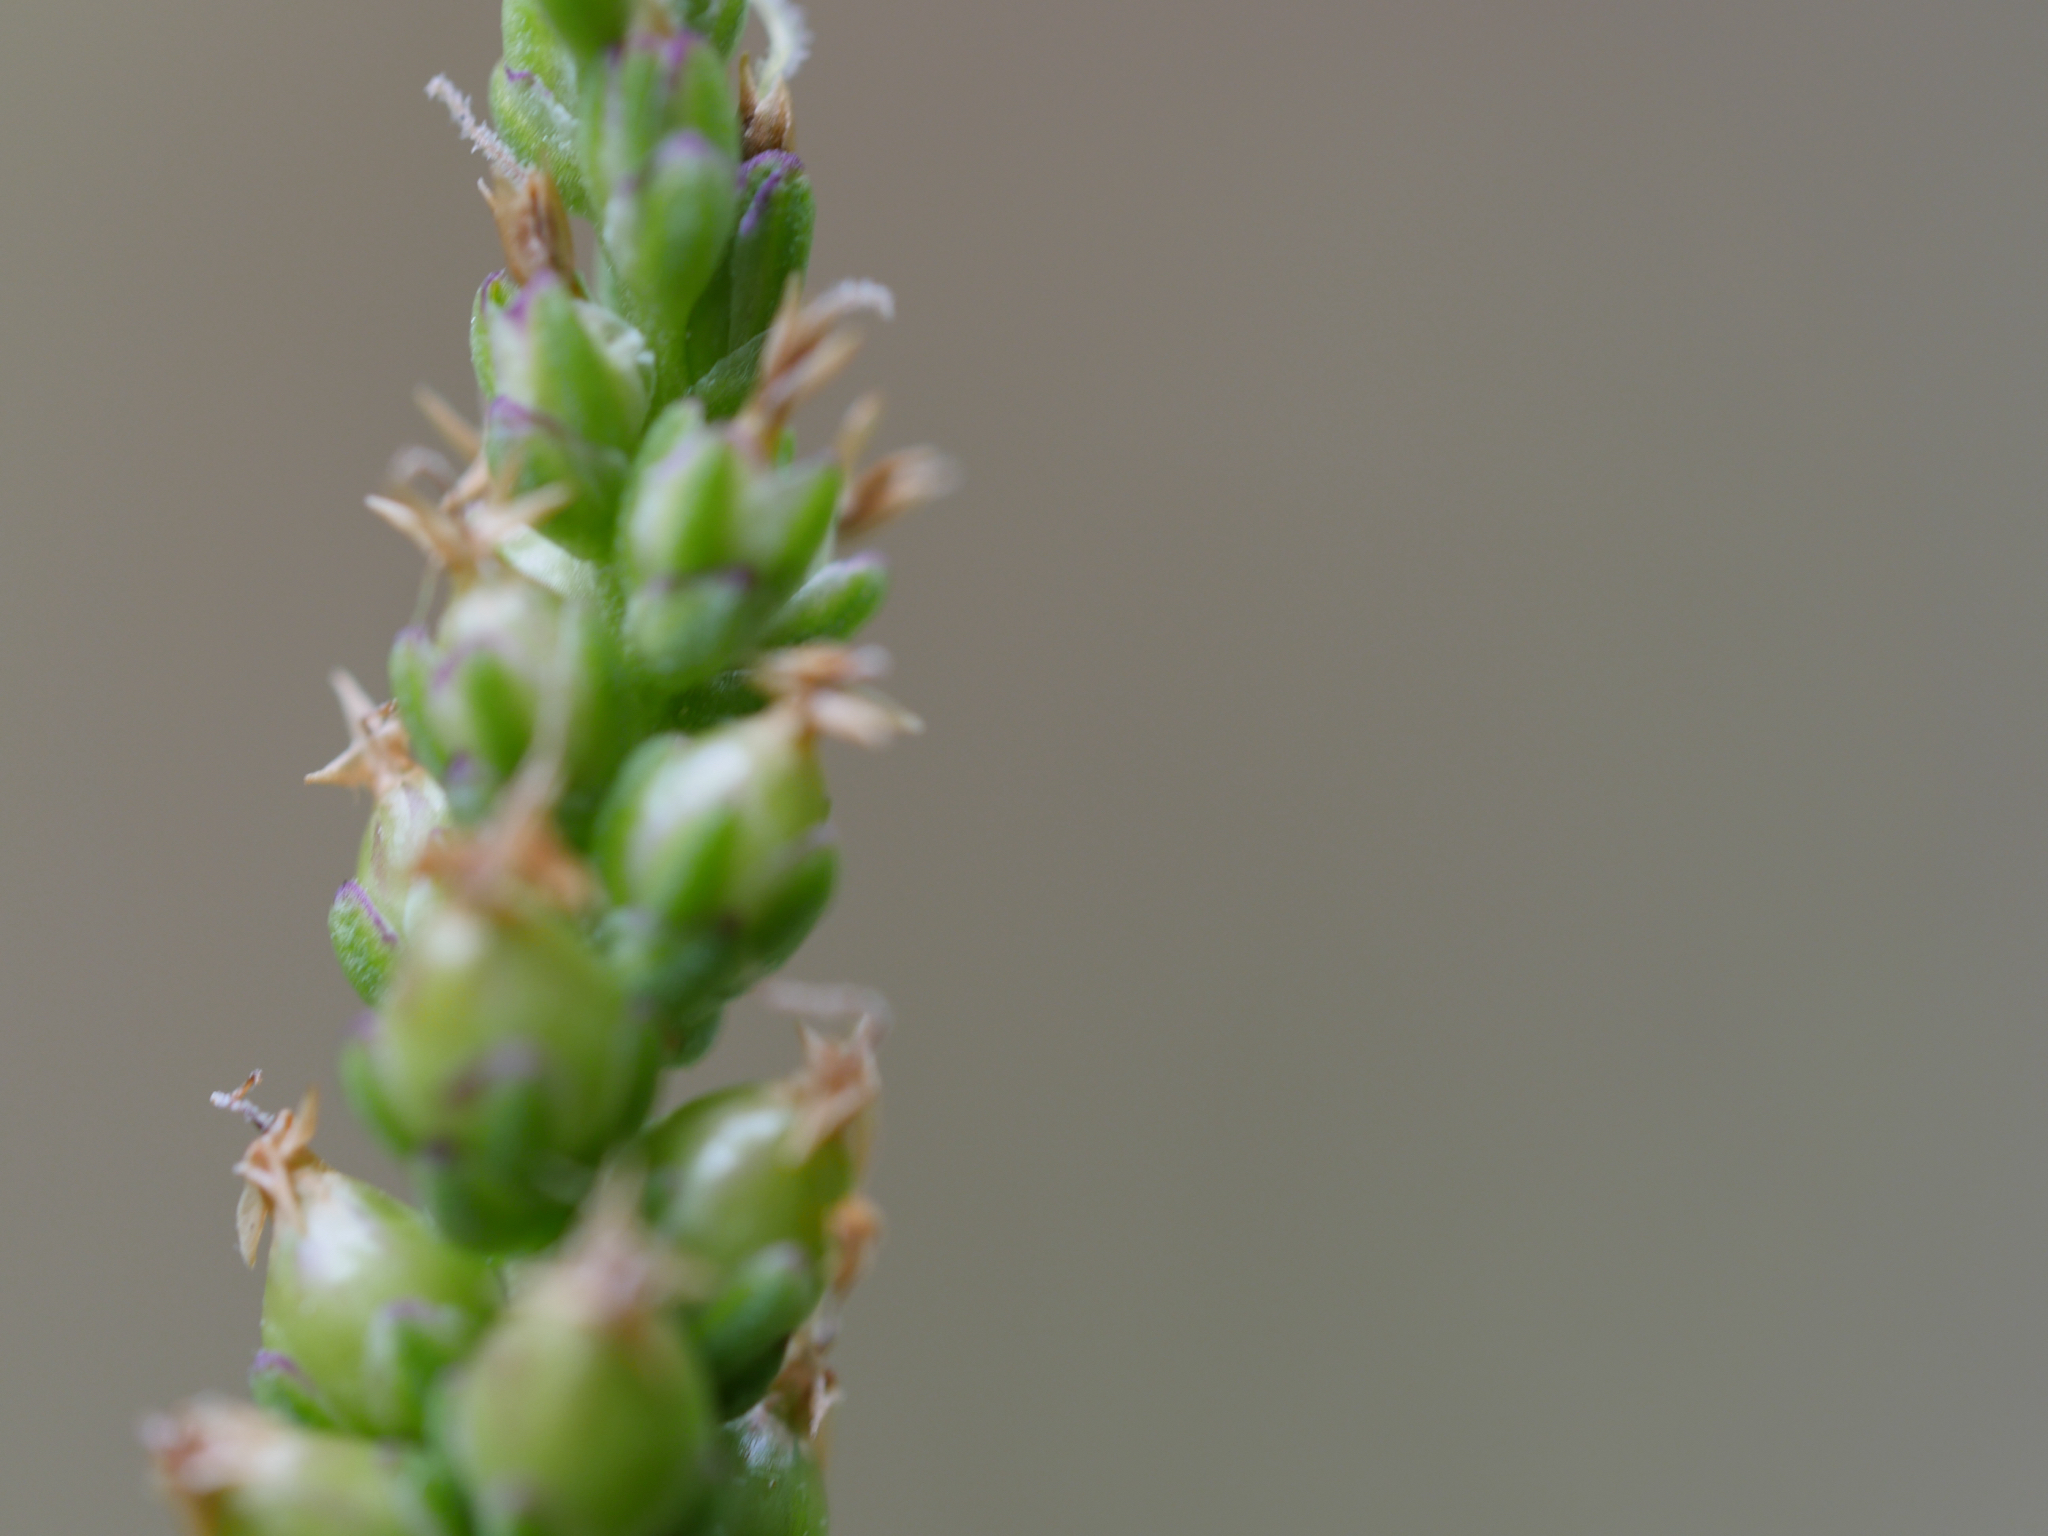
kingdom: Plantae
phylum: Tracheophyta
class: Magnoliopsida
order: Lamiales
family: Plantaginaceae
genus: Plantago
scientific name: Plantago major
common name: Common plantain
